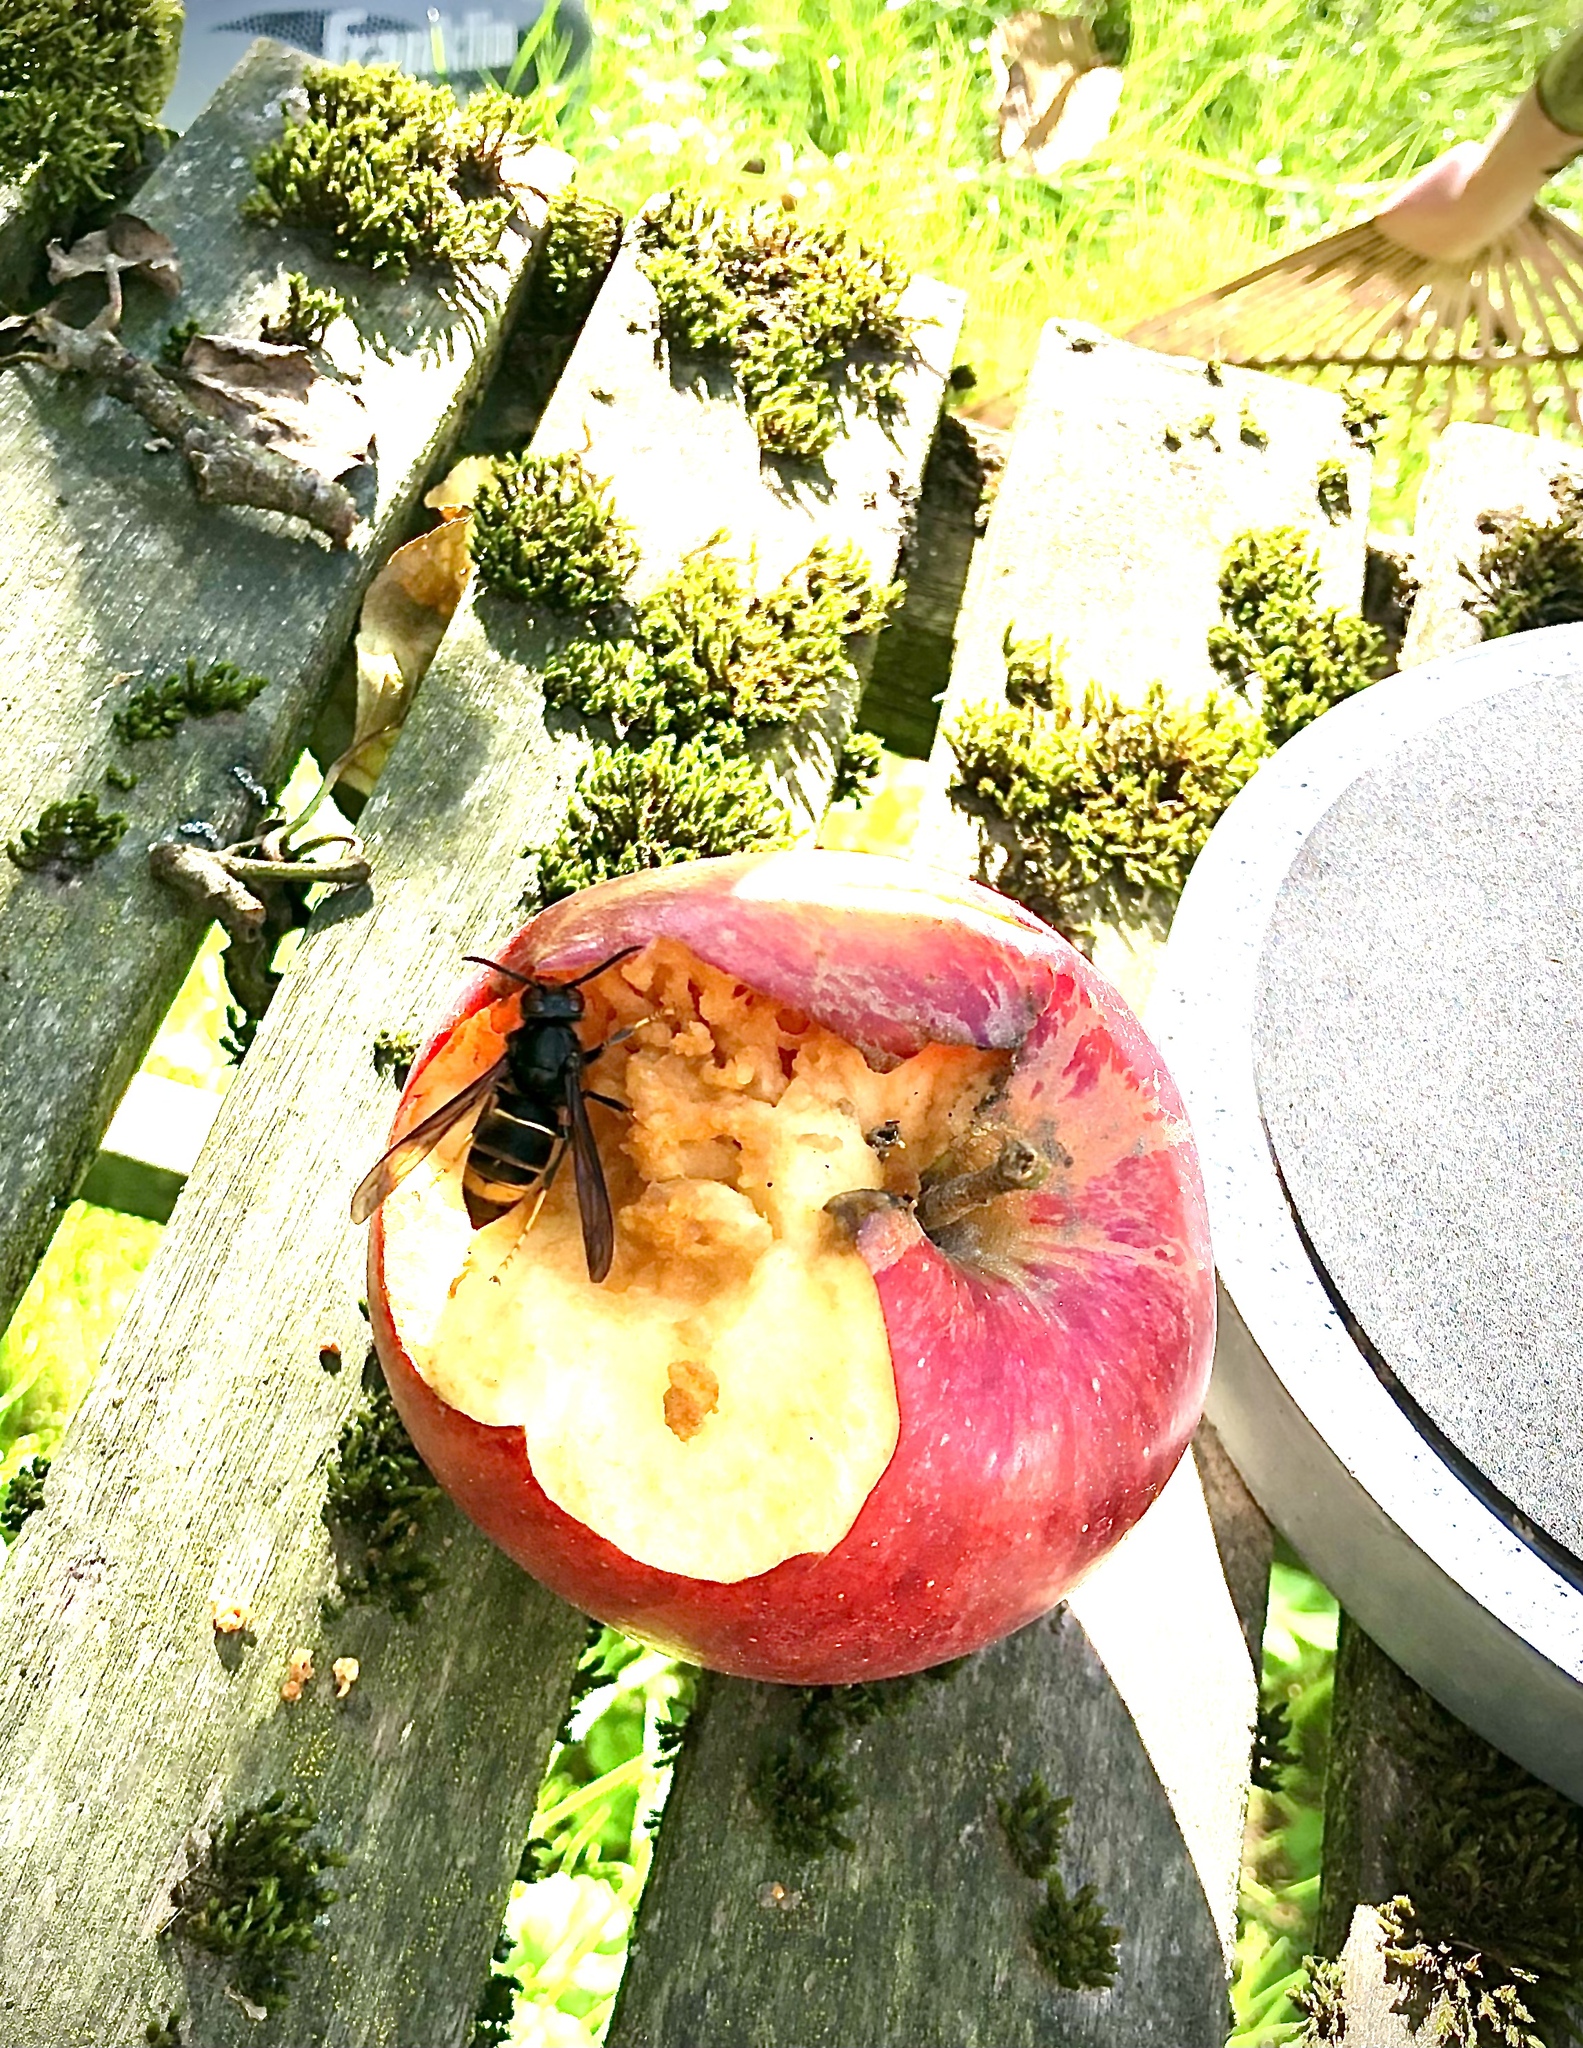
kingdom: Animalia
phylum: Arthropoda
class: Insecta
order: Hymenoptera
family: Vespidae
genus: Vespa
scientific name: Vespa velutina
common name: Asian hornet
